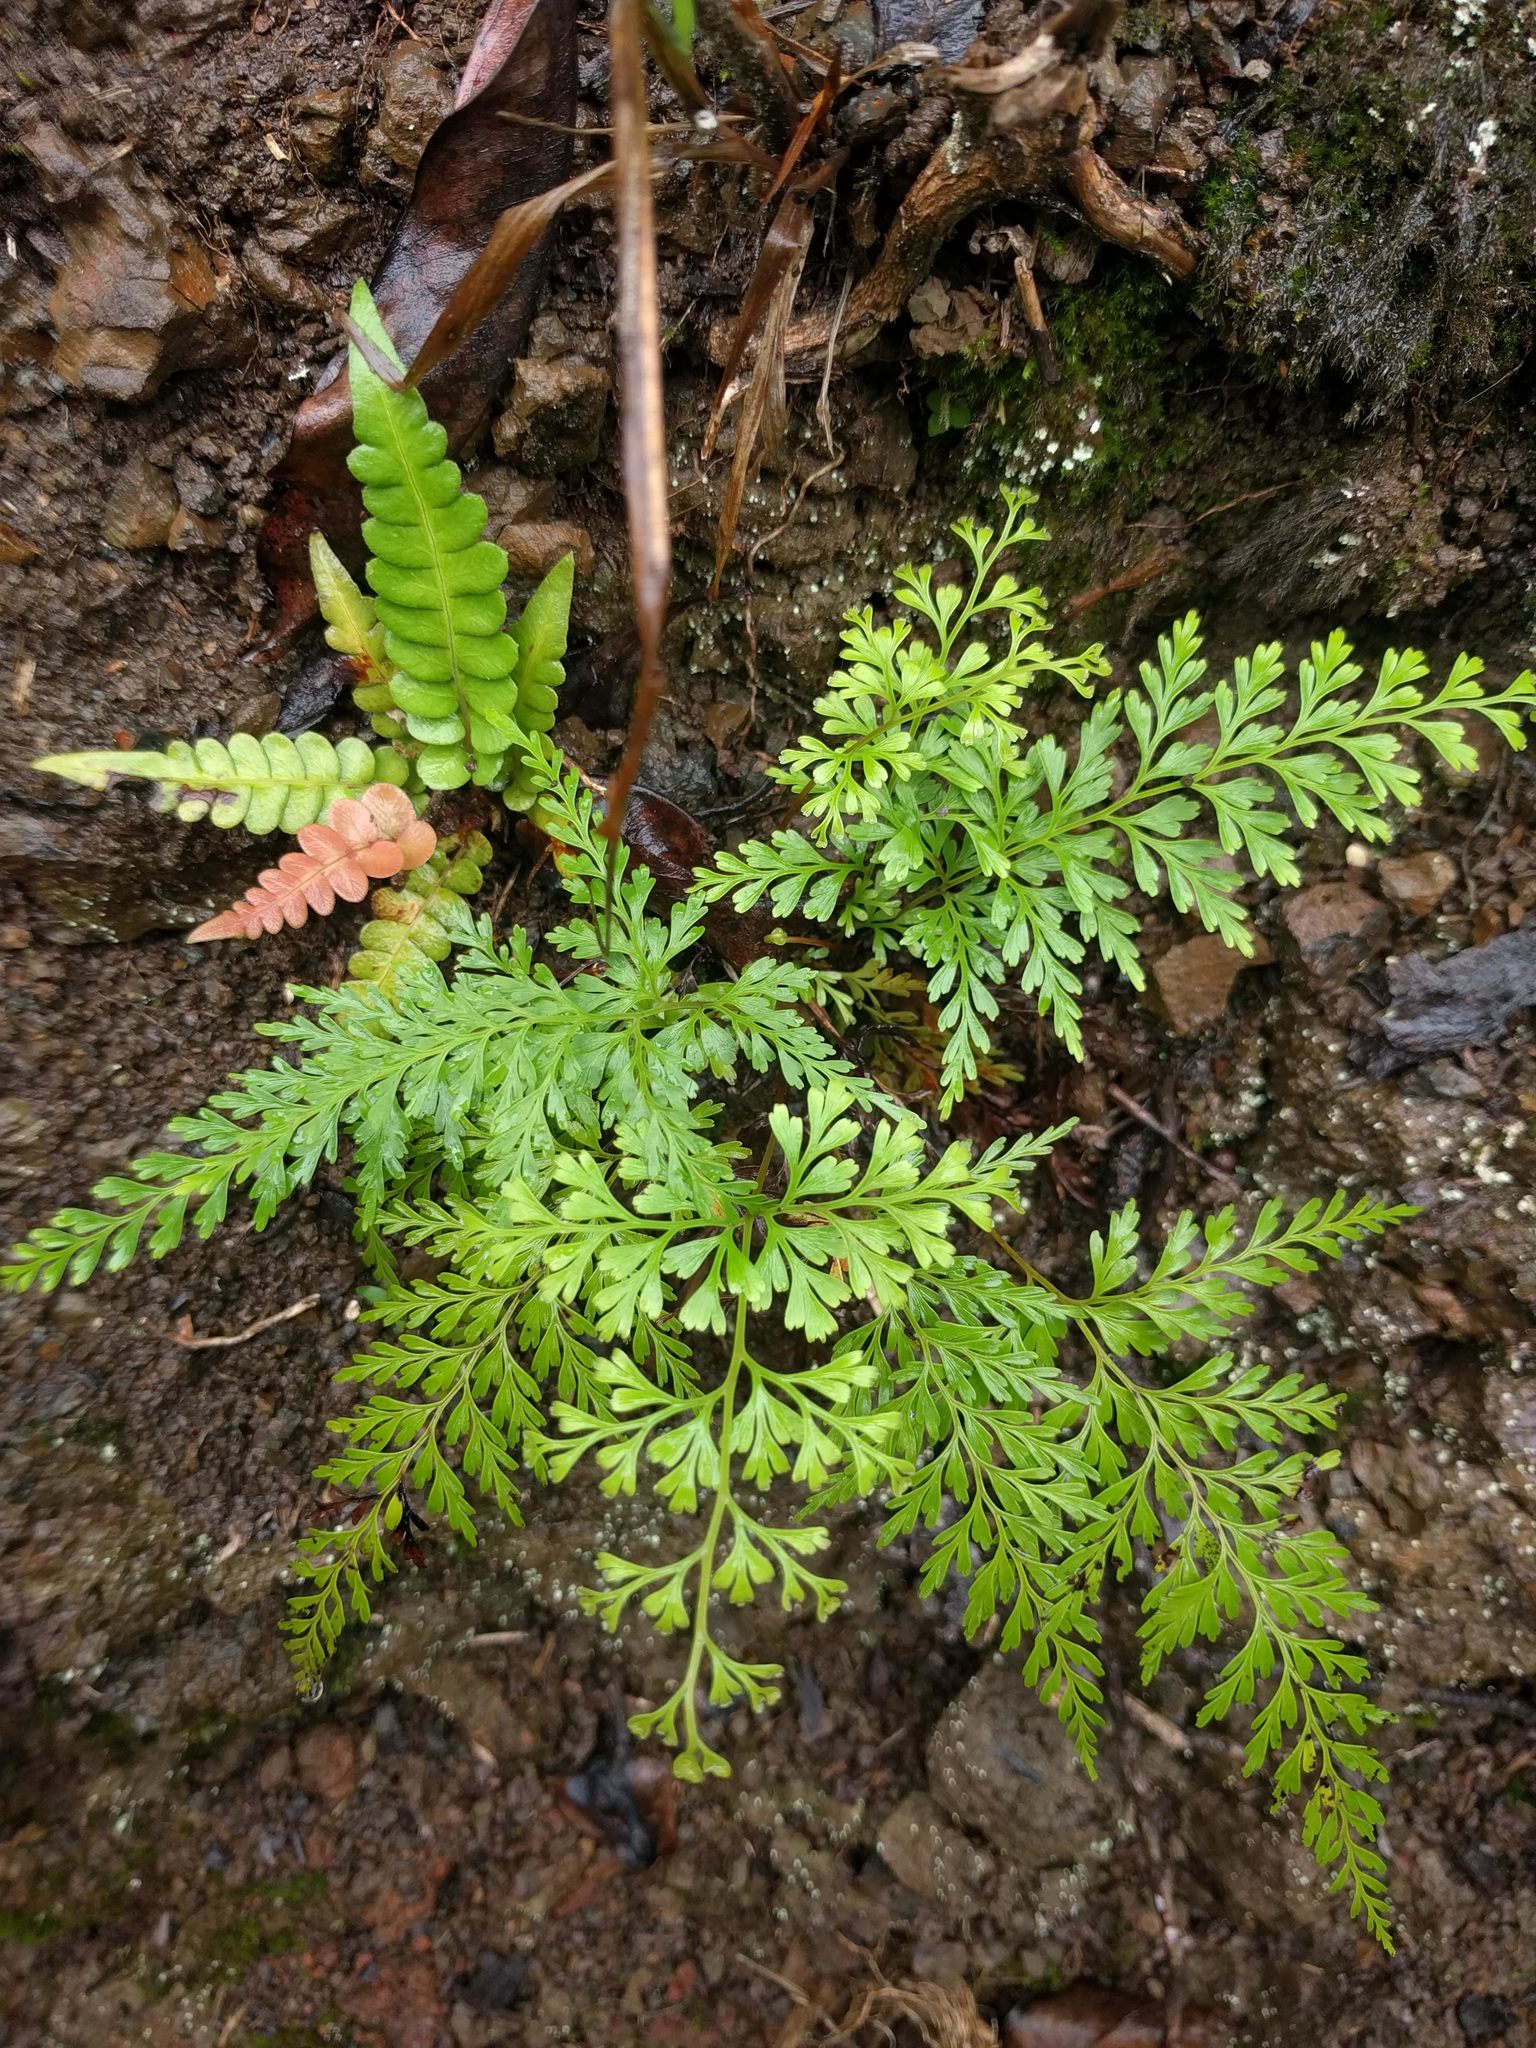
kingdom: Plantae
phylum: Tracheophyta
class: Polypodiopsida
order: Polypodiales
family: Lindsaeaceae
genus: Odontosoria
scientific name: Odontosoria chinensis
